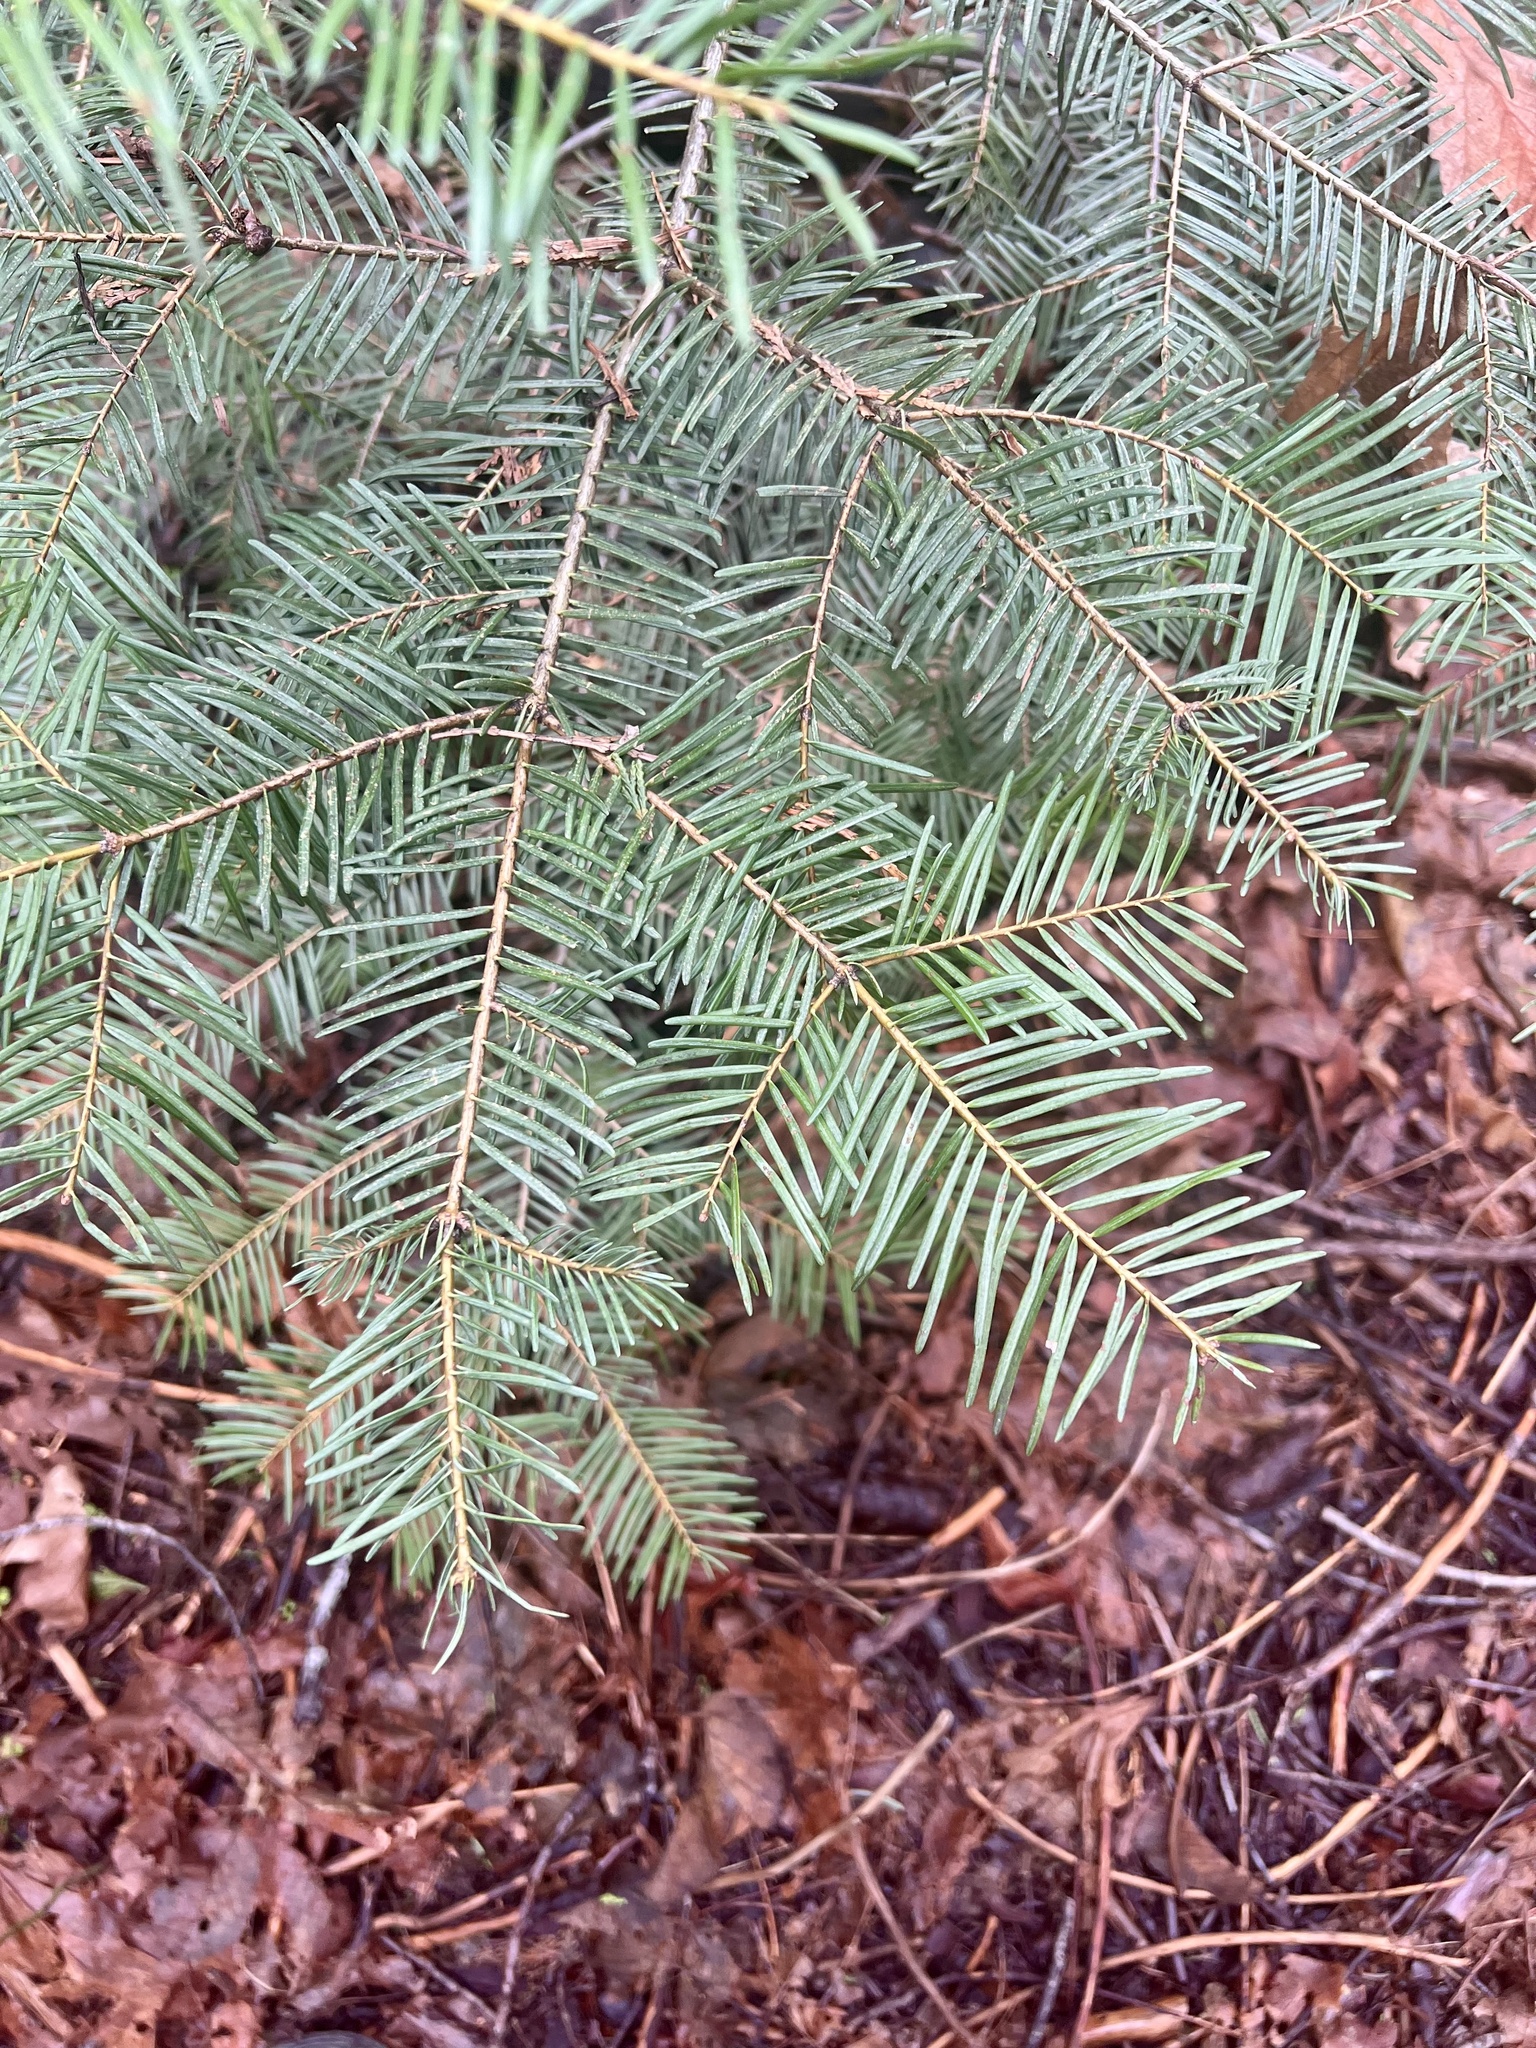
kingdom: Plantae
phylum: Tracheophyta
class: Pinopsida
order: Pinales
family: Pinaceae
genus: Abies
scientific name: Abies concolor
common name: Colorado fir
